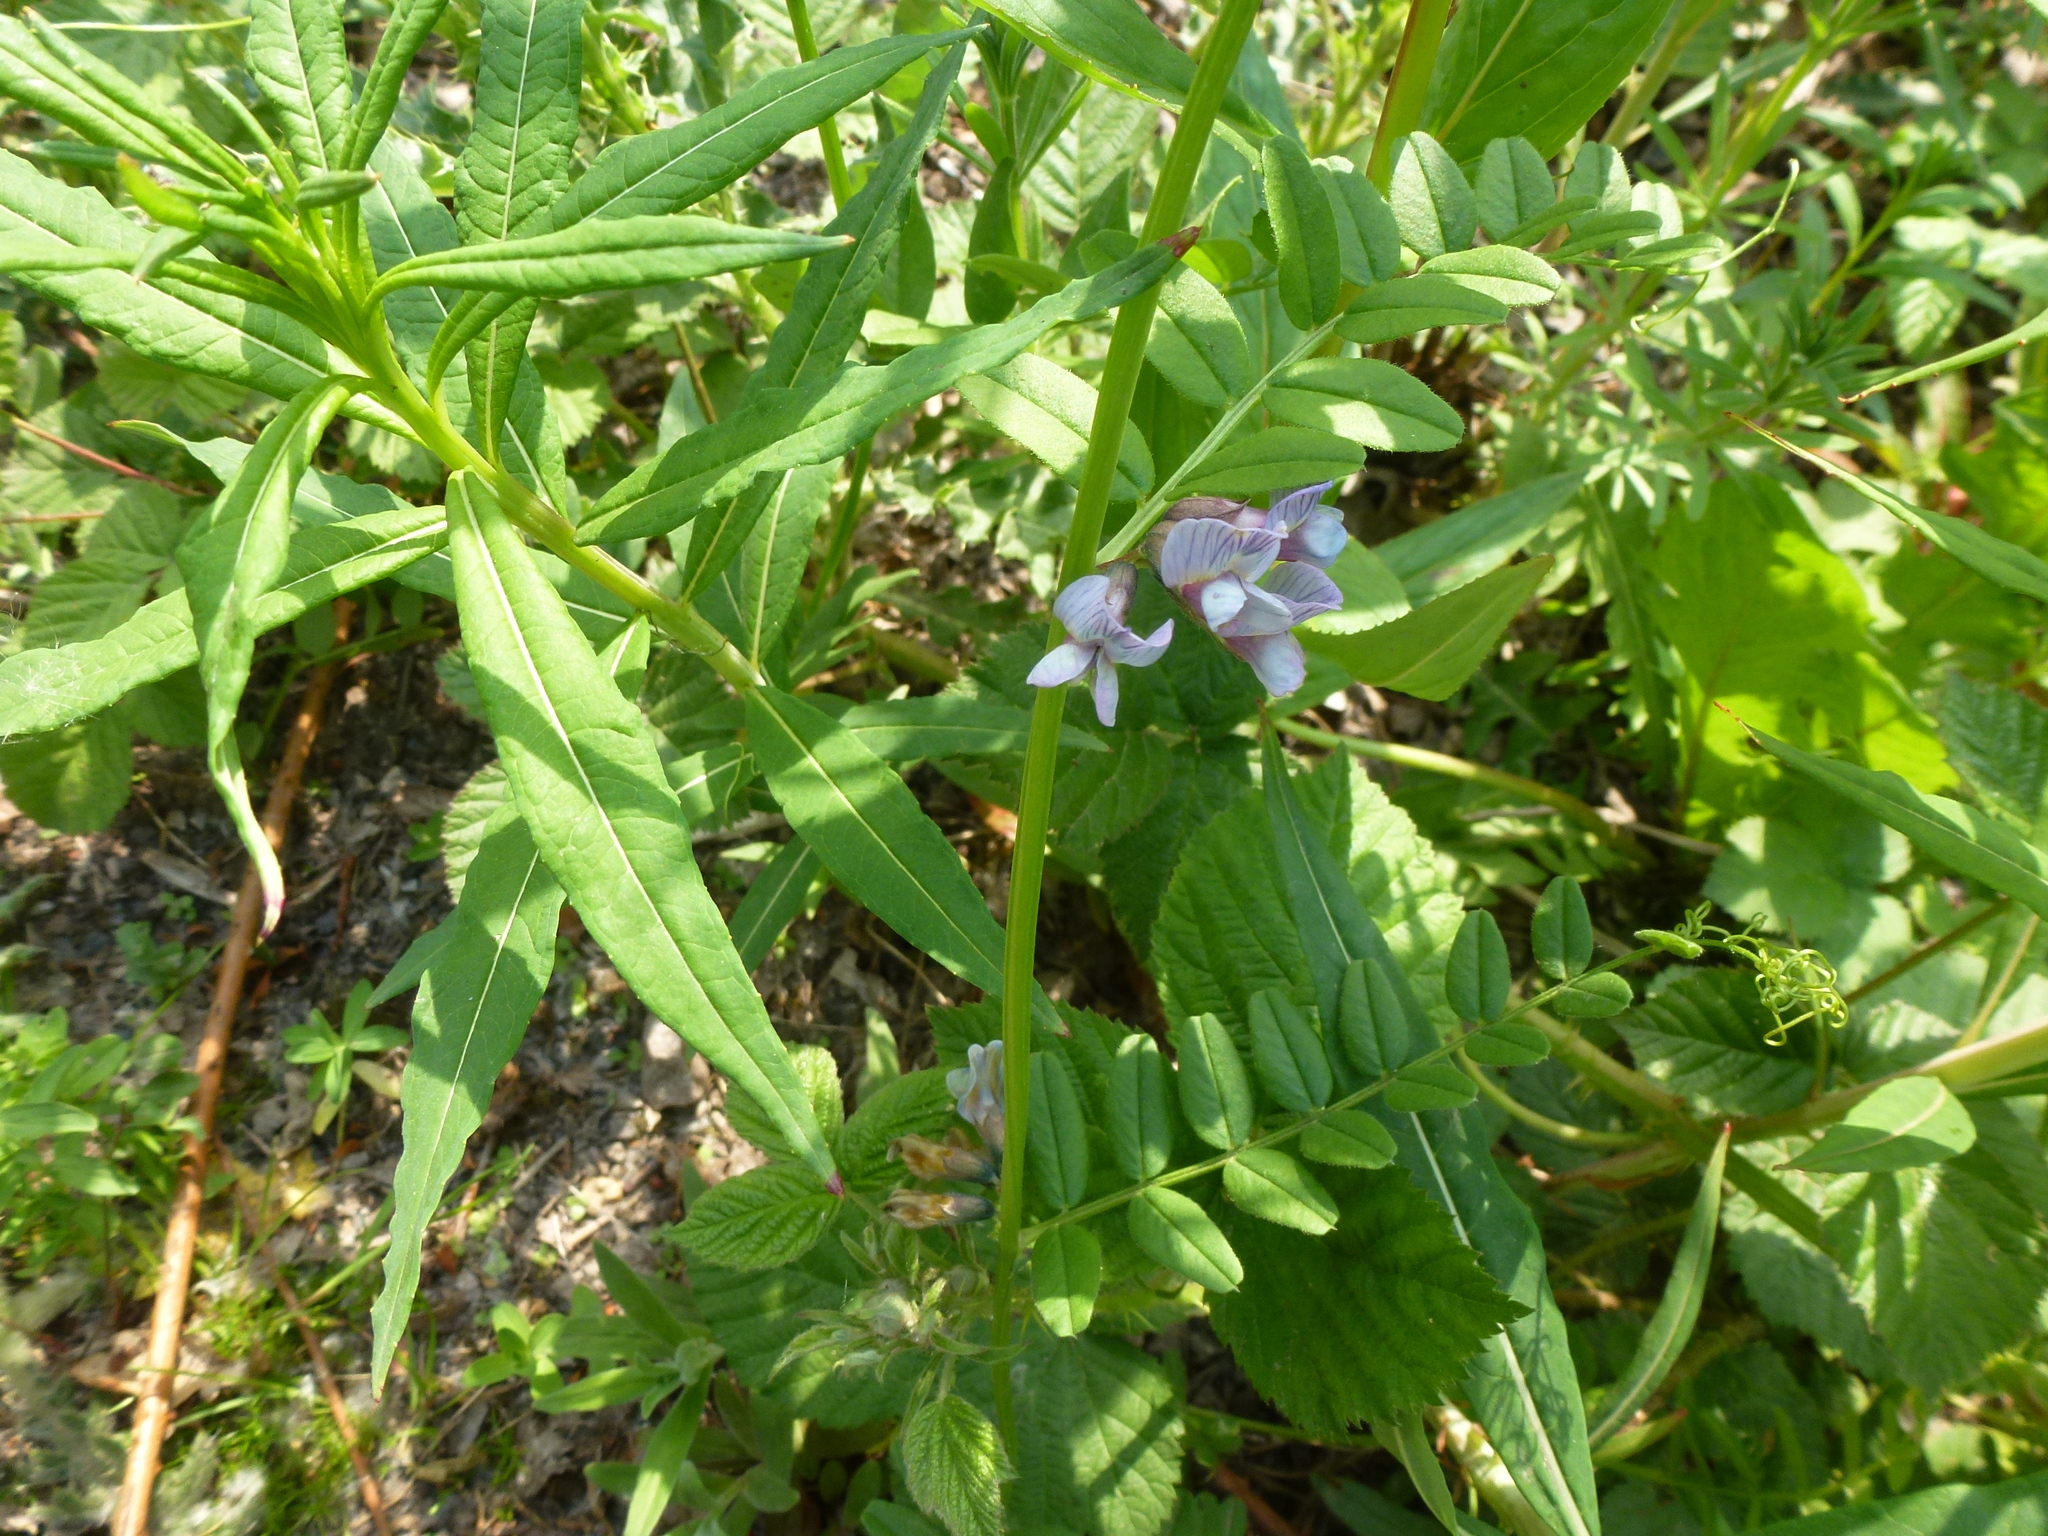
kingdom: Plantae
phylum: Tracheophyta
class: Magnoliopsida
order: Fabales
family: Fabaceae
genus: Vicia
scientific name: Vicia sepium
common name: Bush vetch
